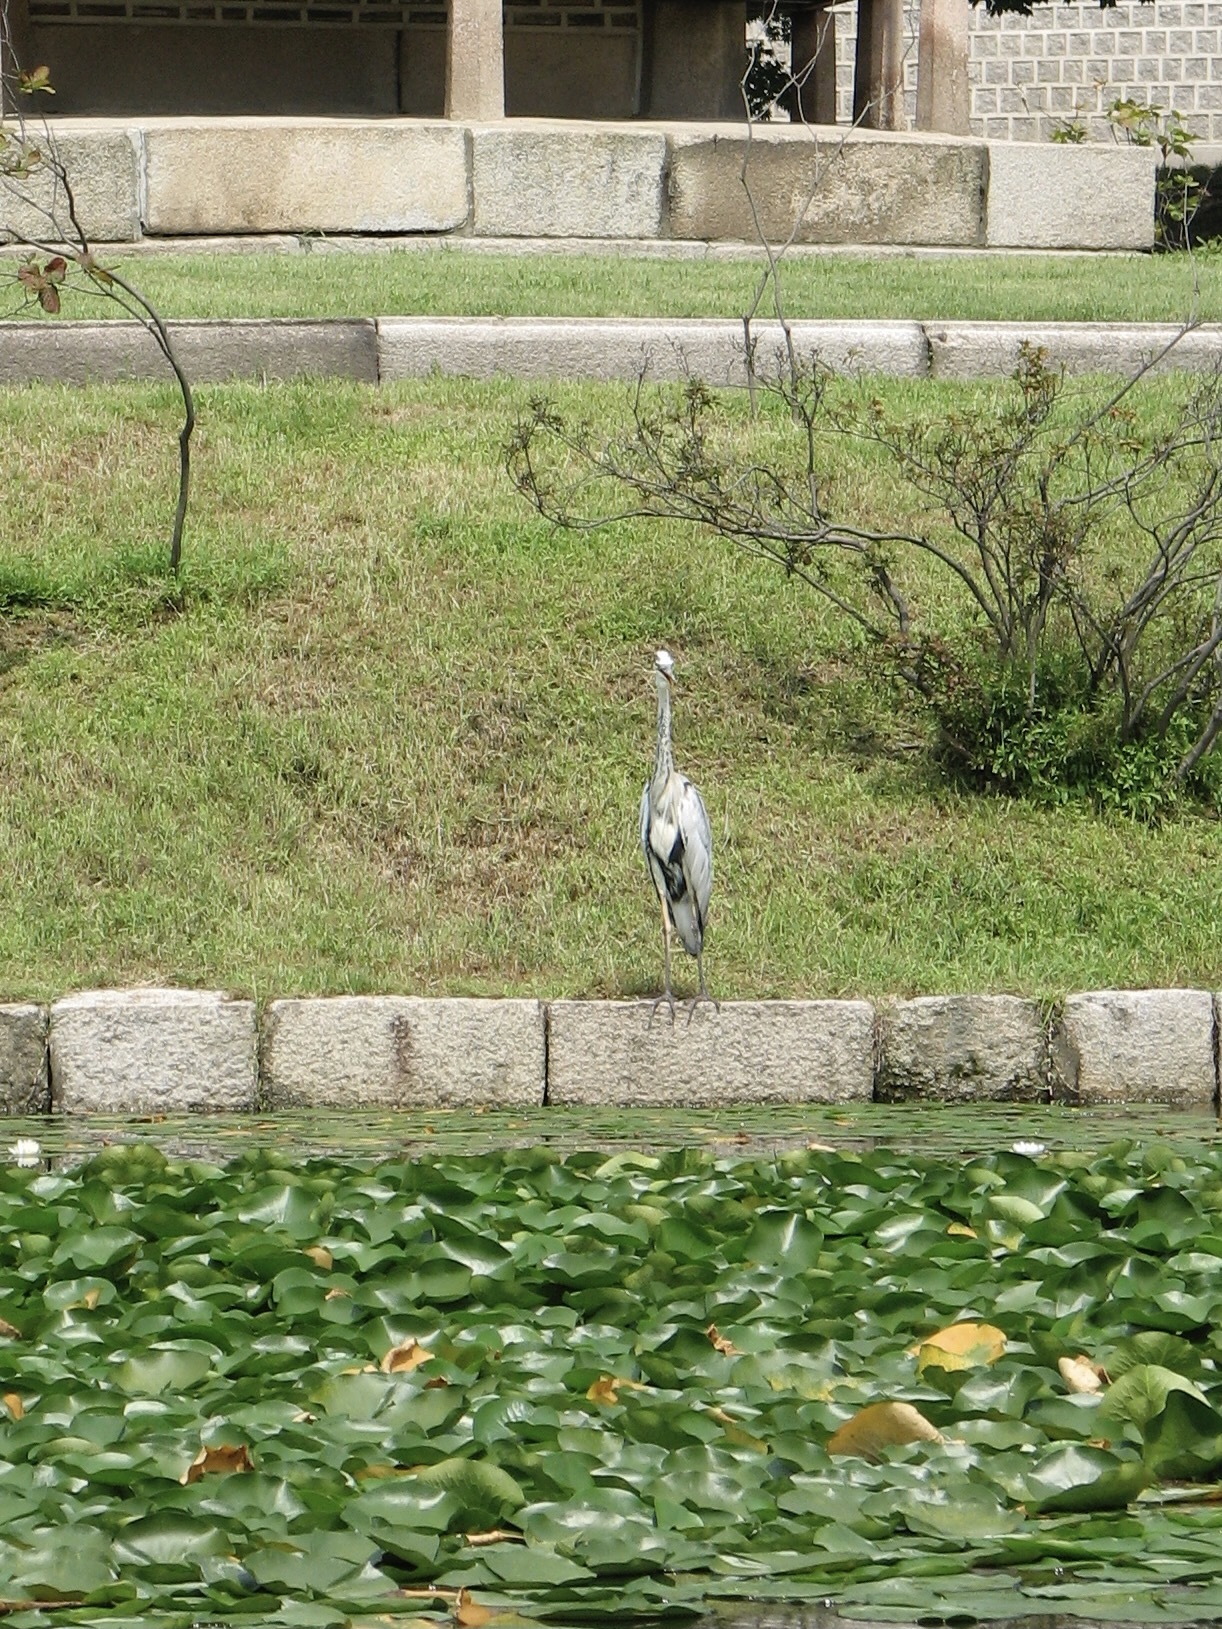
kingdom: Animalia
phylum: Chordata
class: Aves
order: Pelecaniformes
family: Ardeidae
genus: Ardea
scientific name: Ardea cinerea
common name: Grey heron
